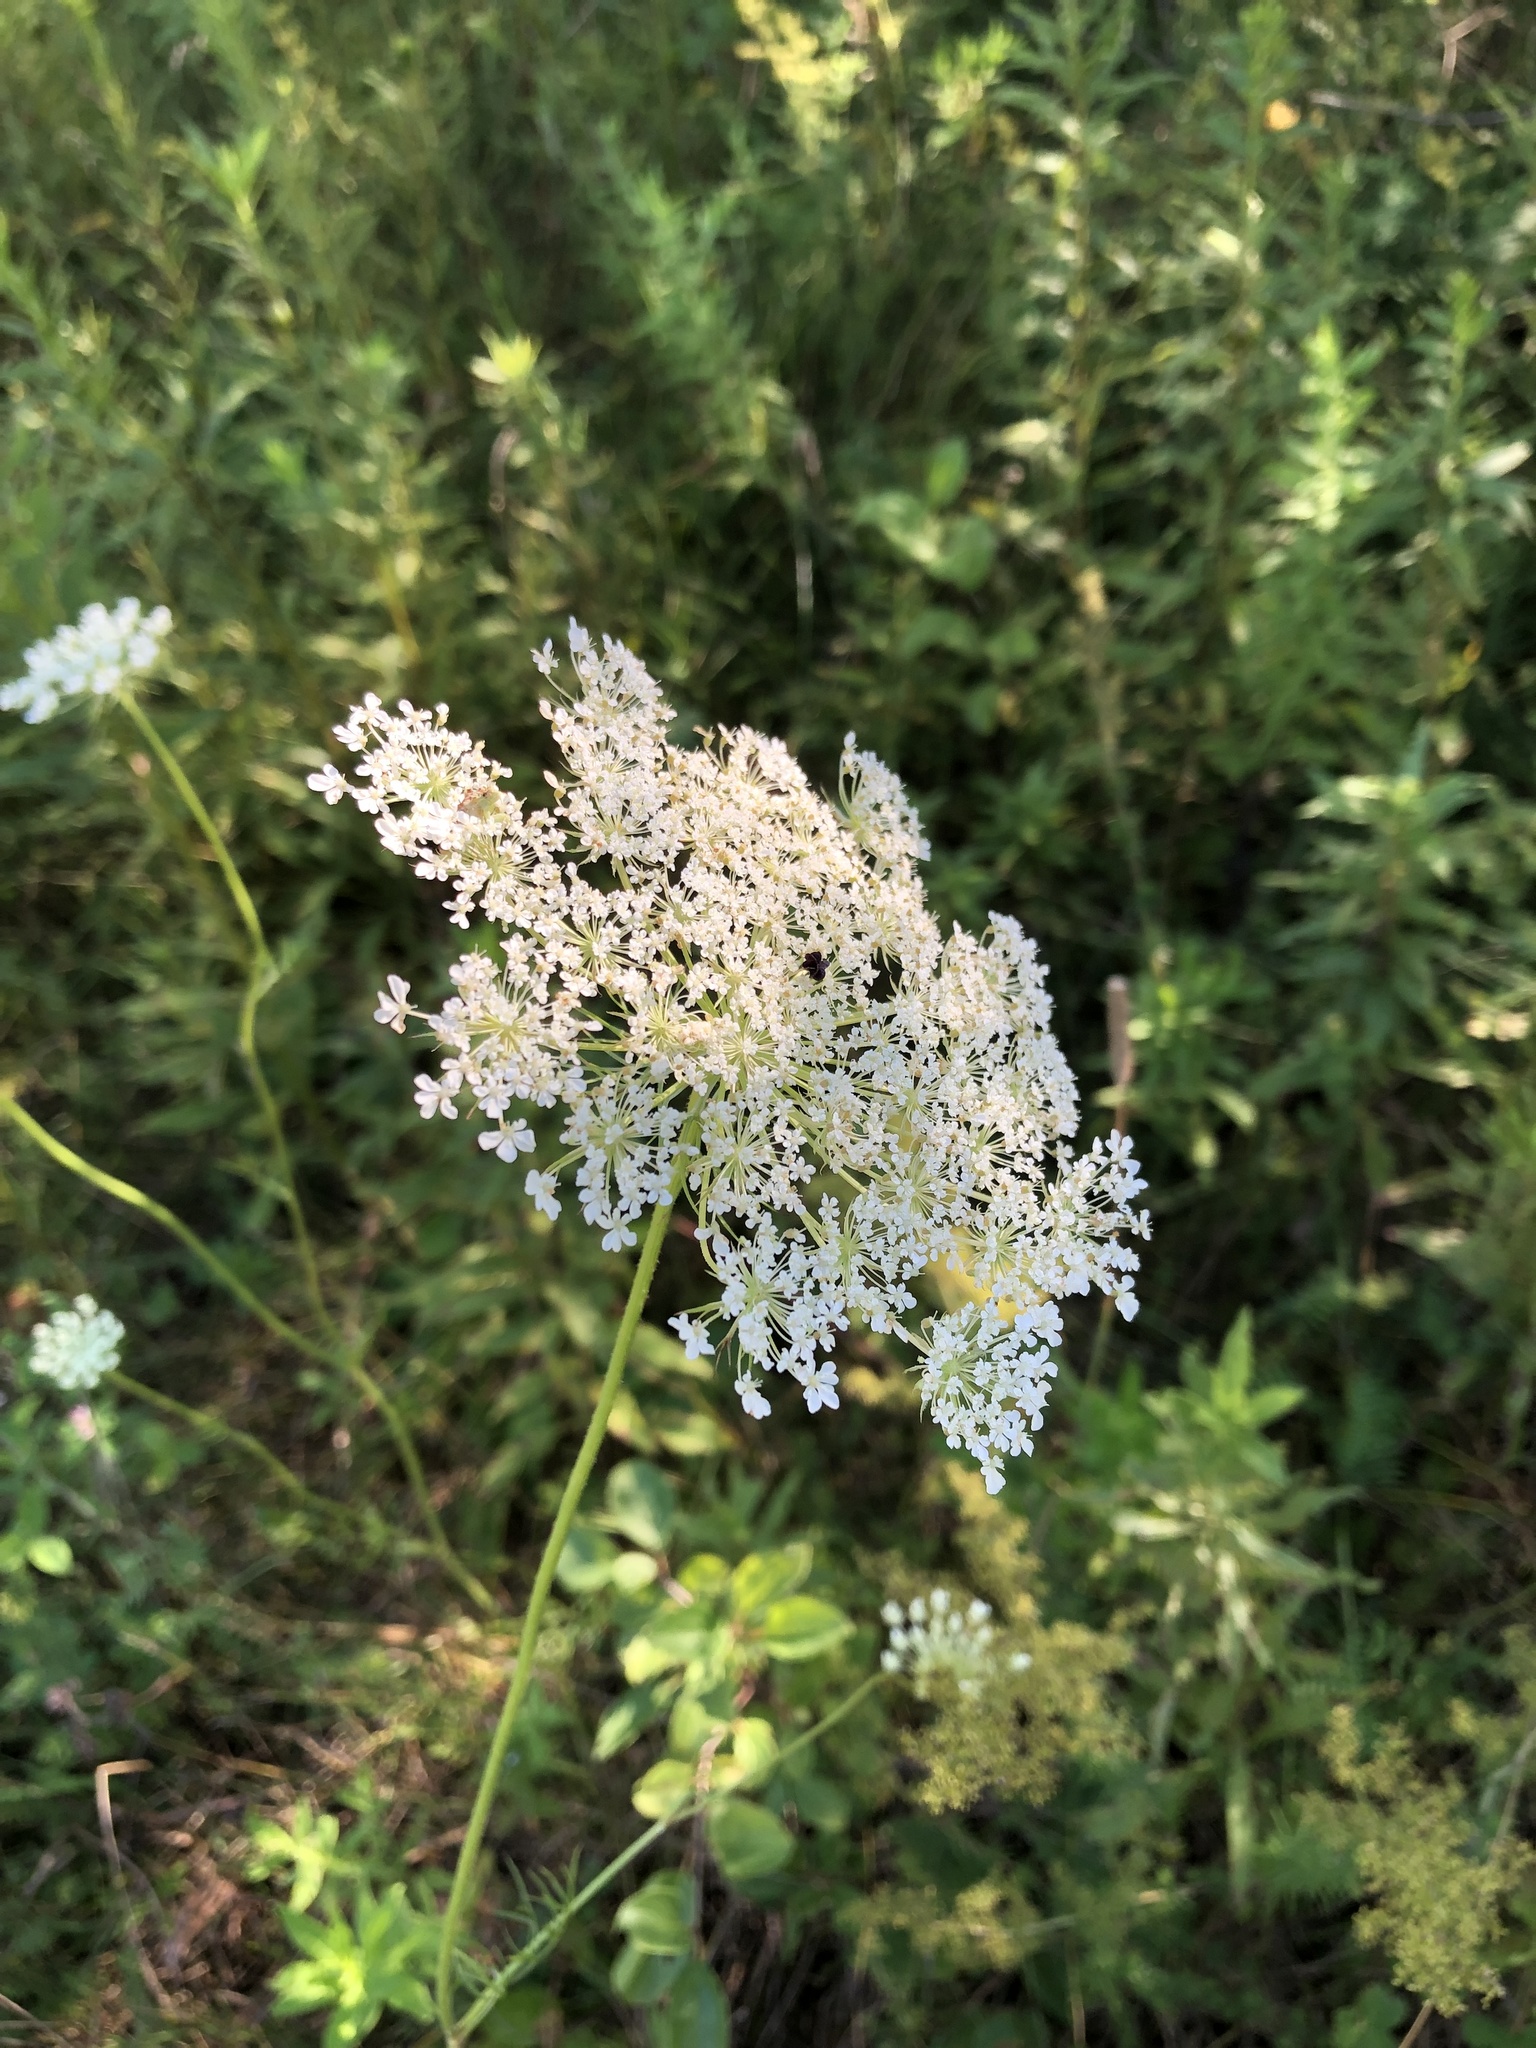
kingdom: Plantae
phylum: Tracheophyta
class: Magnoliopsida
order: Apiales
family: Apiaceae
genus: Daucus
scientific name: Daucus carota
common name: Wild carrot
